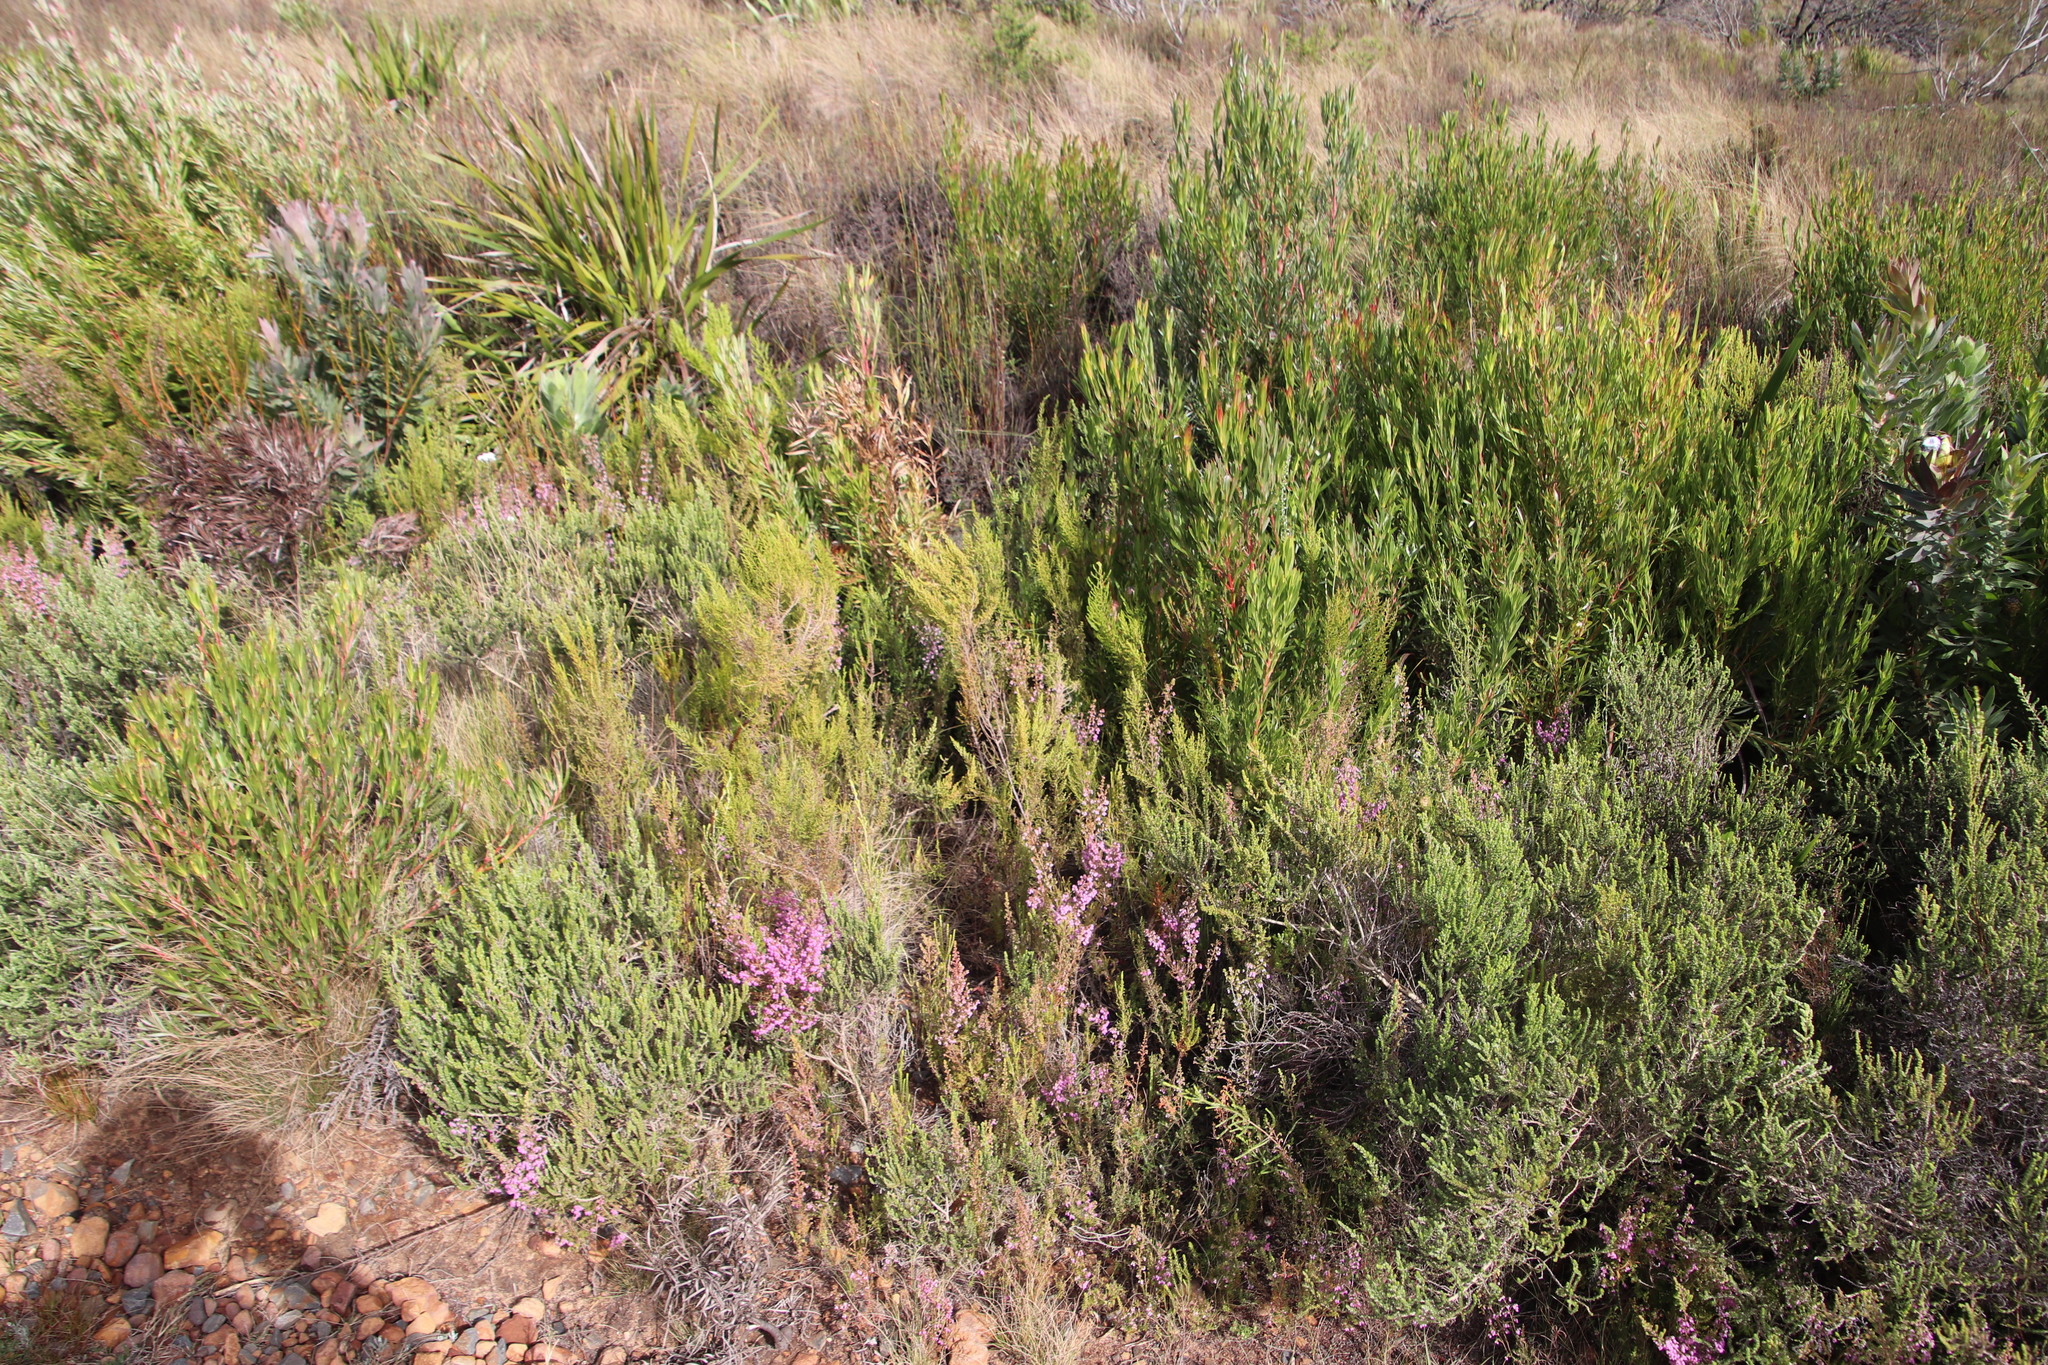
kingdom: Plantae
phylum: Tracheophyta
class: Magnoliopsida
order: Ericales
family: Ericaceae
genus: Erica
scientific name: Erica hirtiflora
